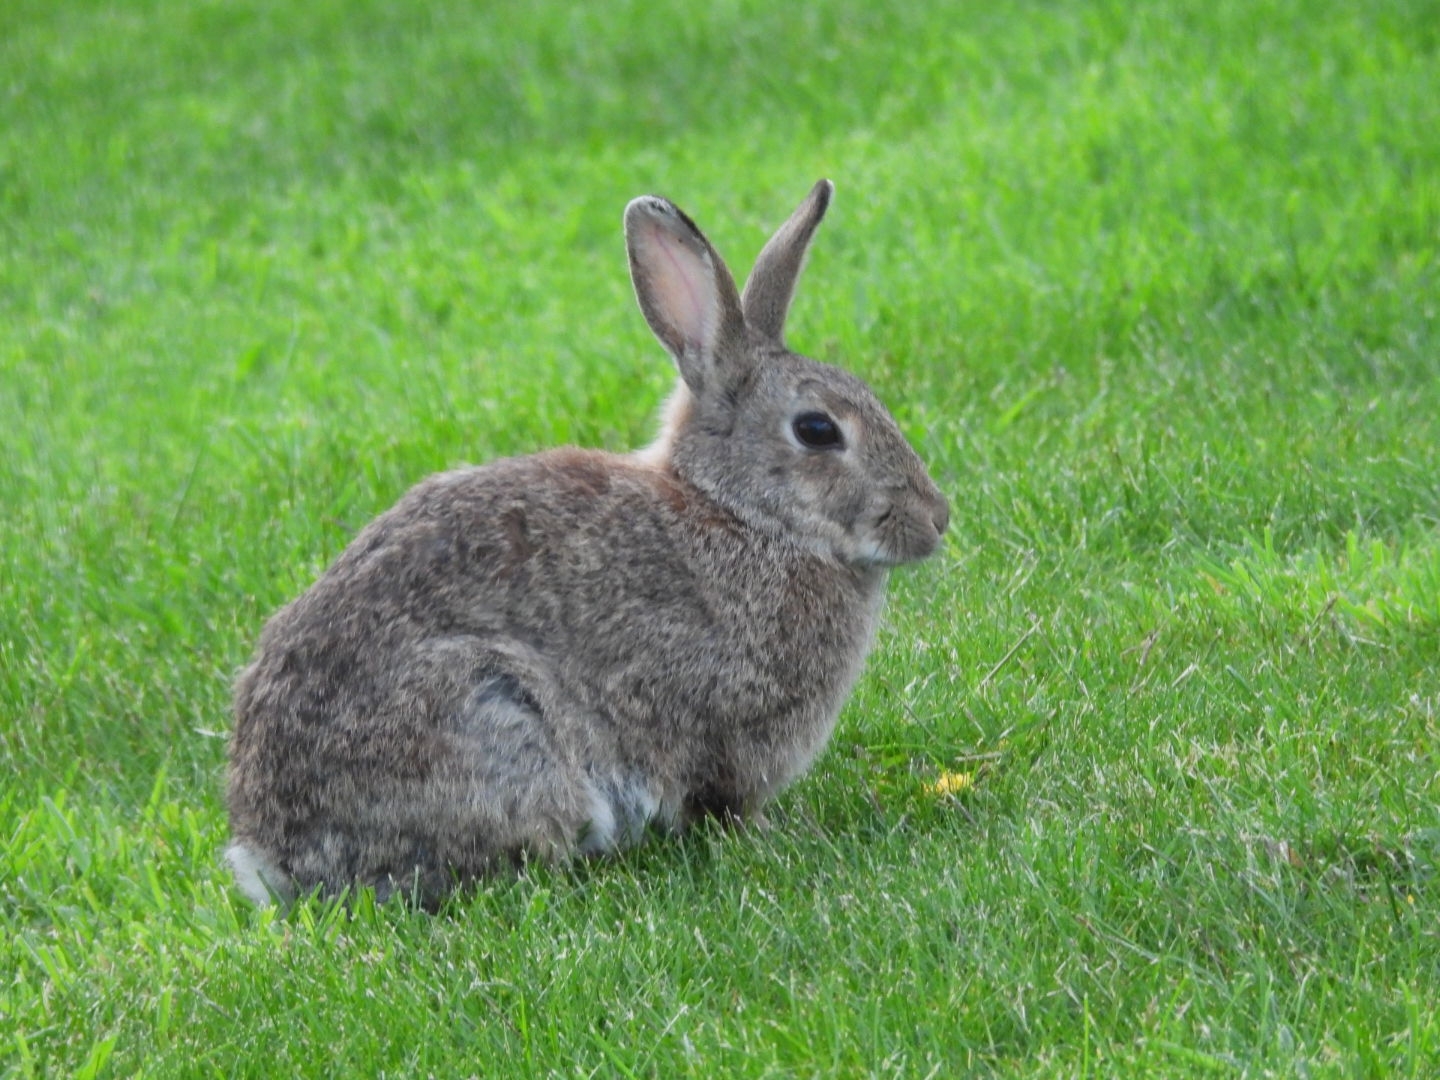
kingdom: Animalia
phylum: Chordata
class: Mammalia
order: Lagomorpha
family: Leporidae
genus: Oryctolagus
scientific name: Oryctolagus cuniculus
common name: European rabbit
